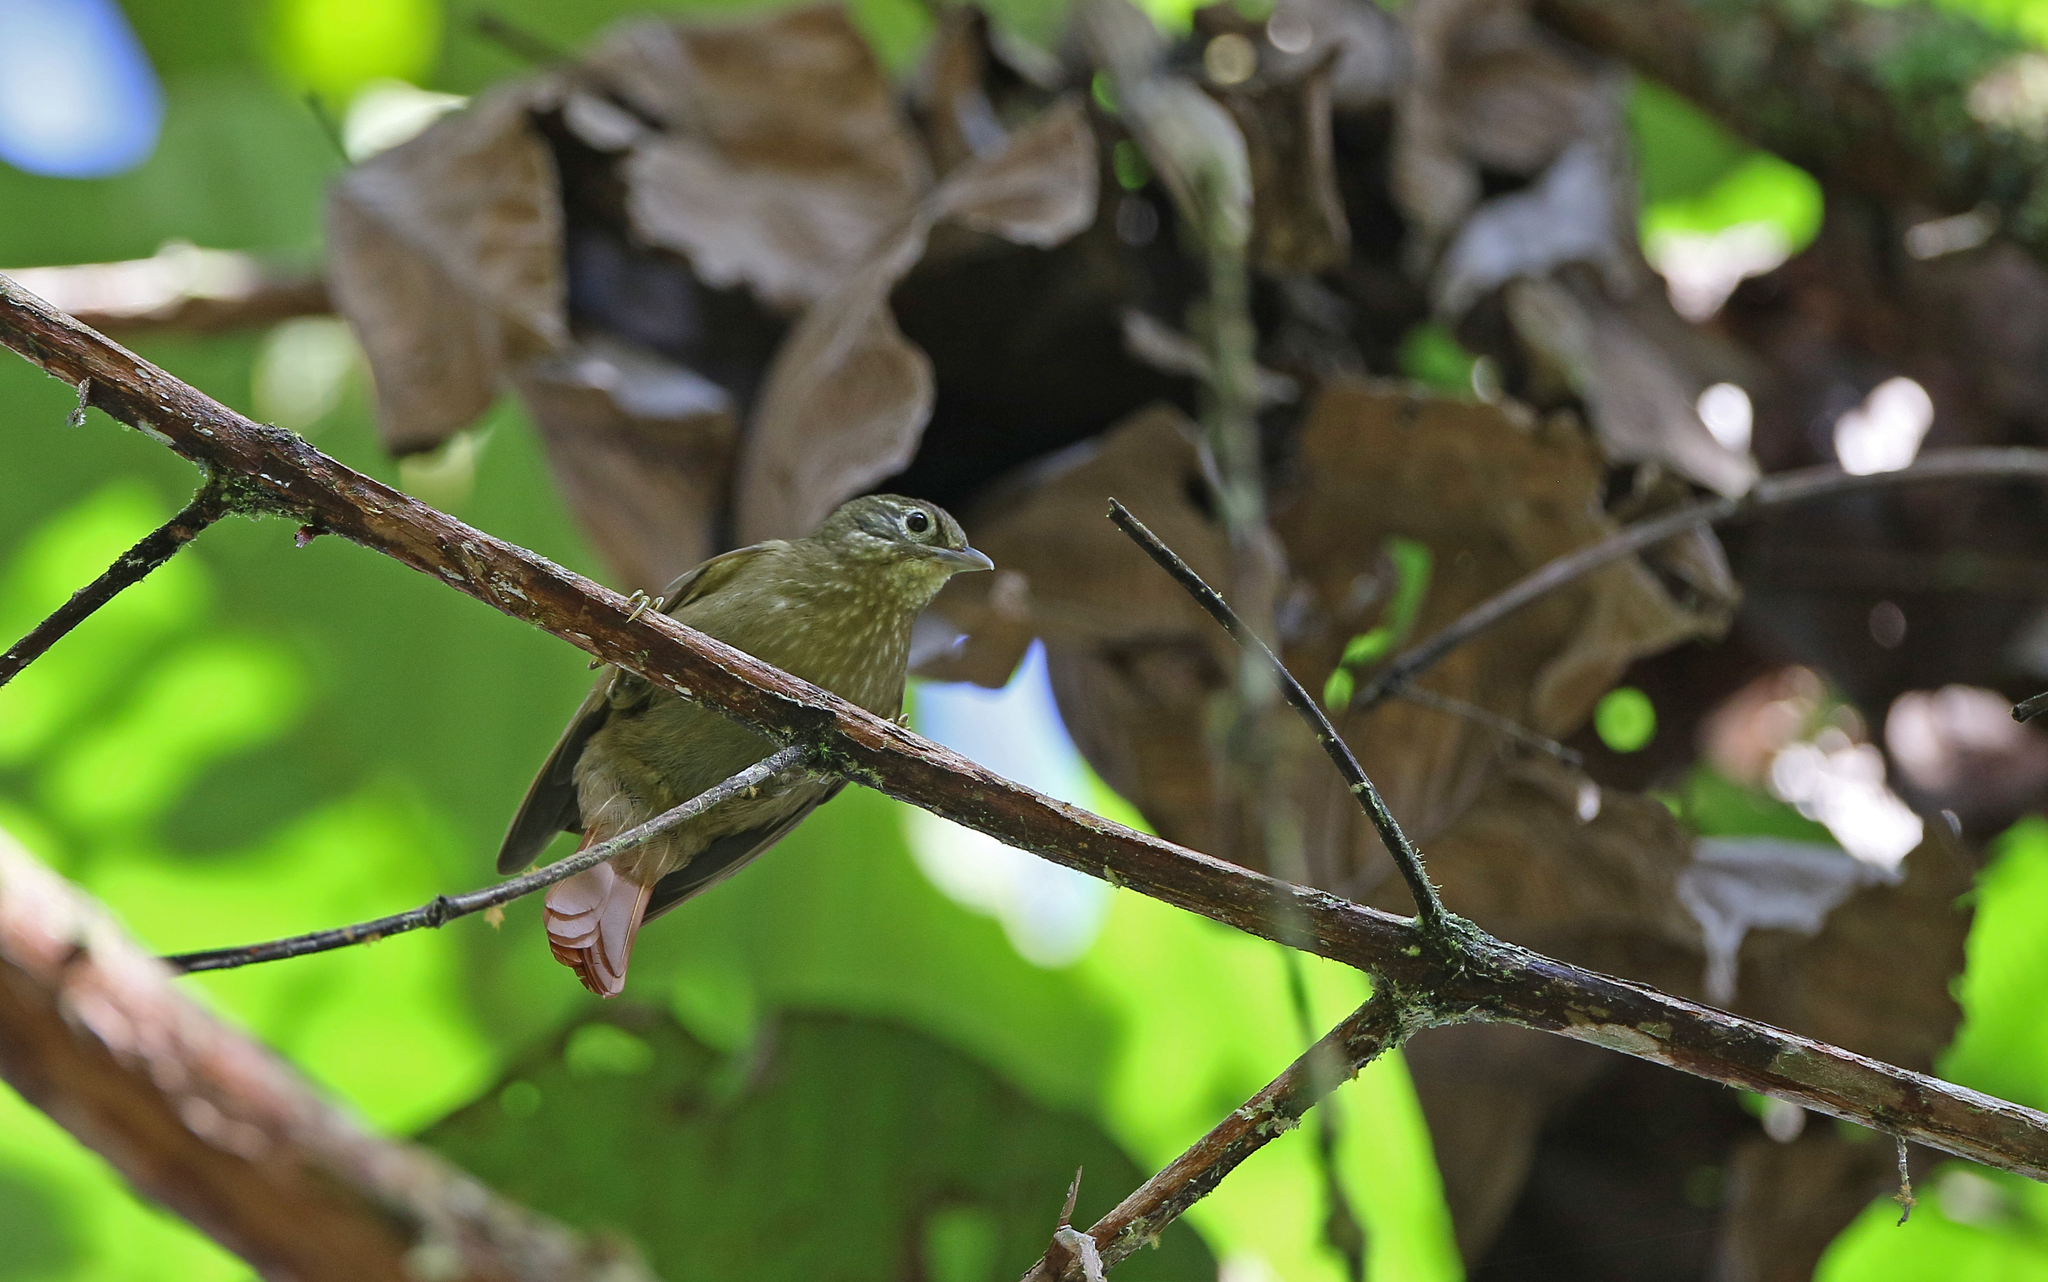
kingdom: Animalia
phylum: Chordata
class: Aves
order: Passeriformes
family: Furnariidae
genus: Anabacerthia
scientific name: Anabacerthia striaticollis
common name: Montane foliage-gleaner
